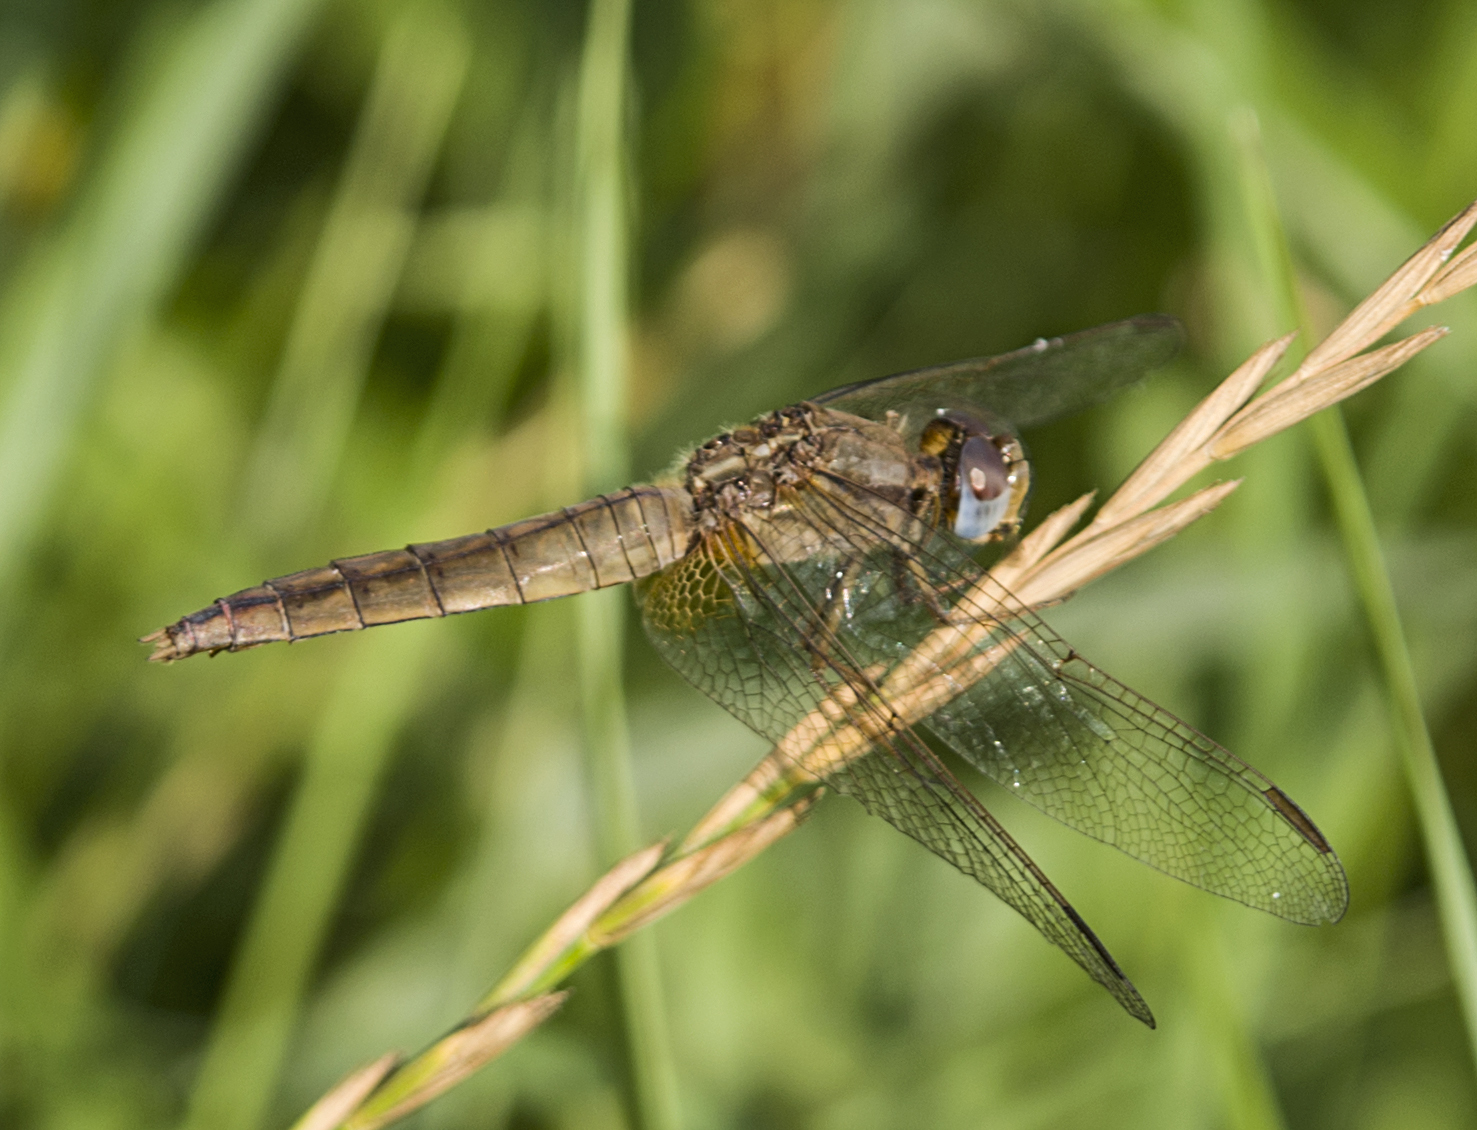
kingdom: Animalia
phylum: Arthropoda
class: Insecta
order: Odonata
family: Libellulidae
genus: Crocothemis
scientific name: Crocothemis erythraea
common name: Scarlet dragonfly
